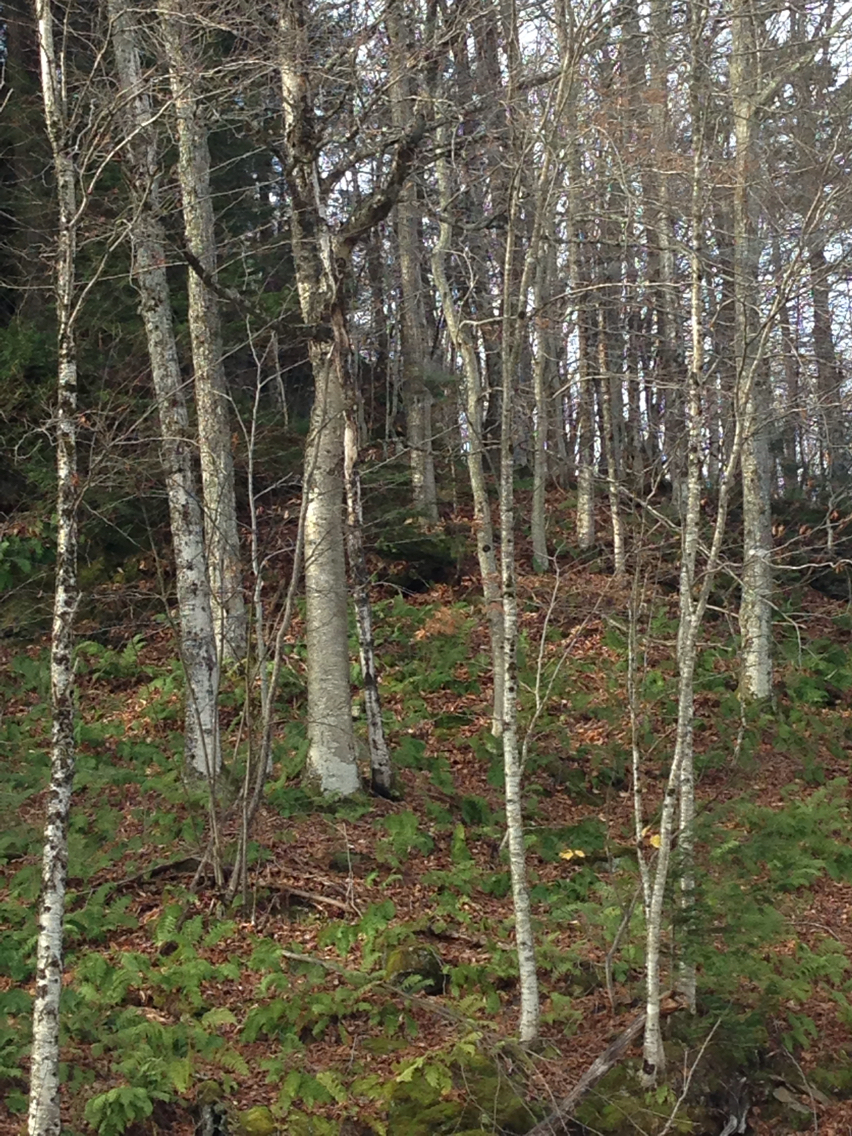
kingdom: Plantae
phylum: Tracheophyta
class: Magnoliopsida
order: Fagales
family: Betulaceae
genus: Betula
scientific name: Betula alleghaniensis
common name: Yellow birch
